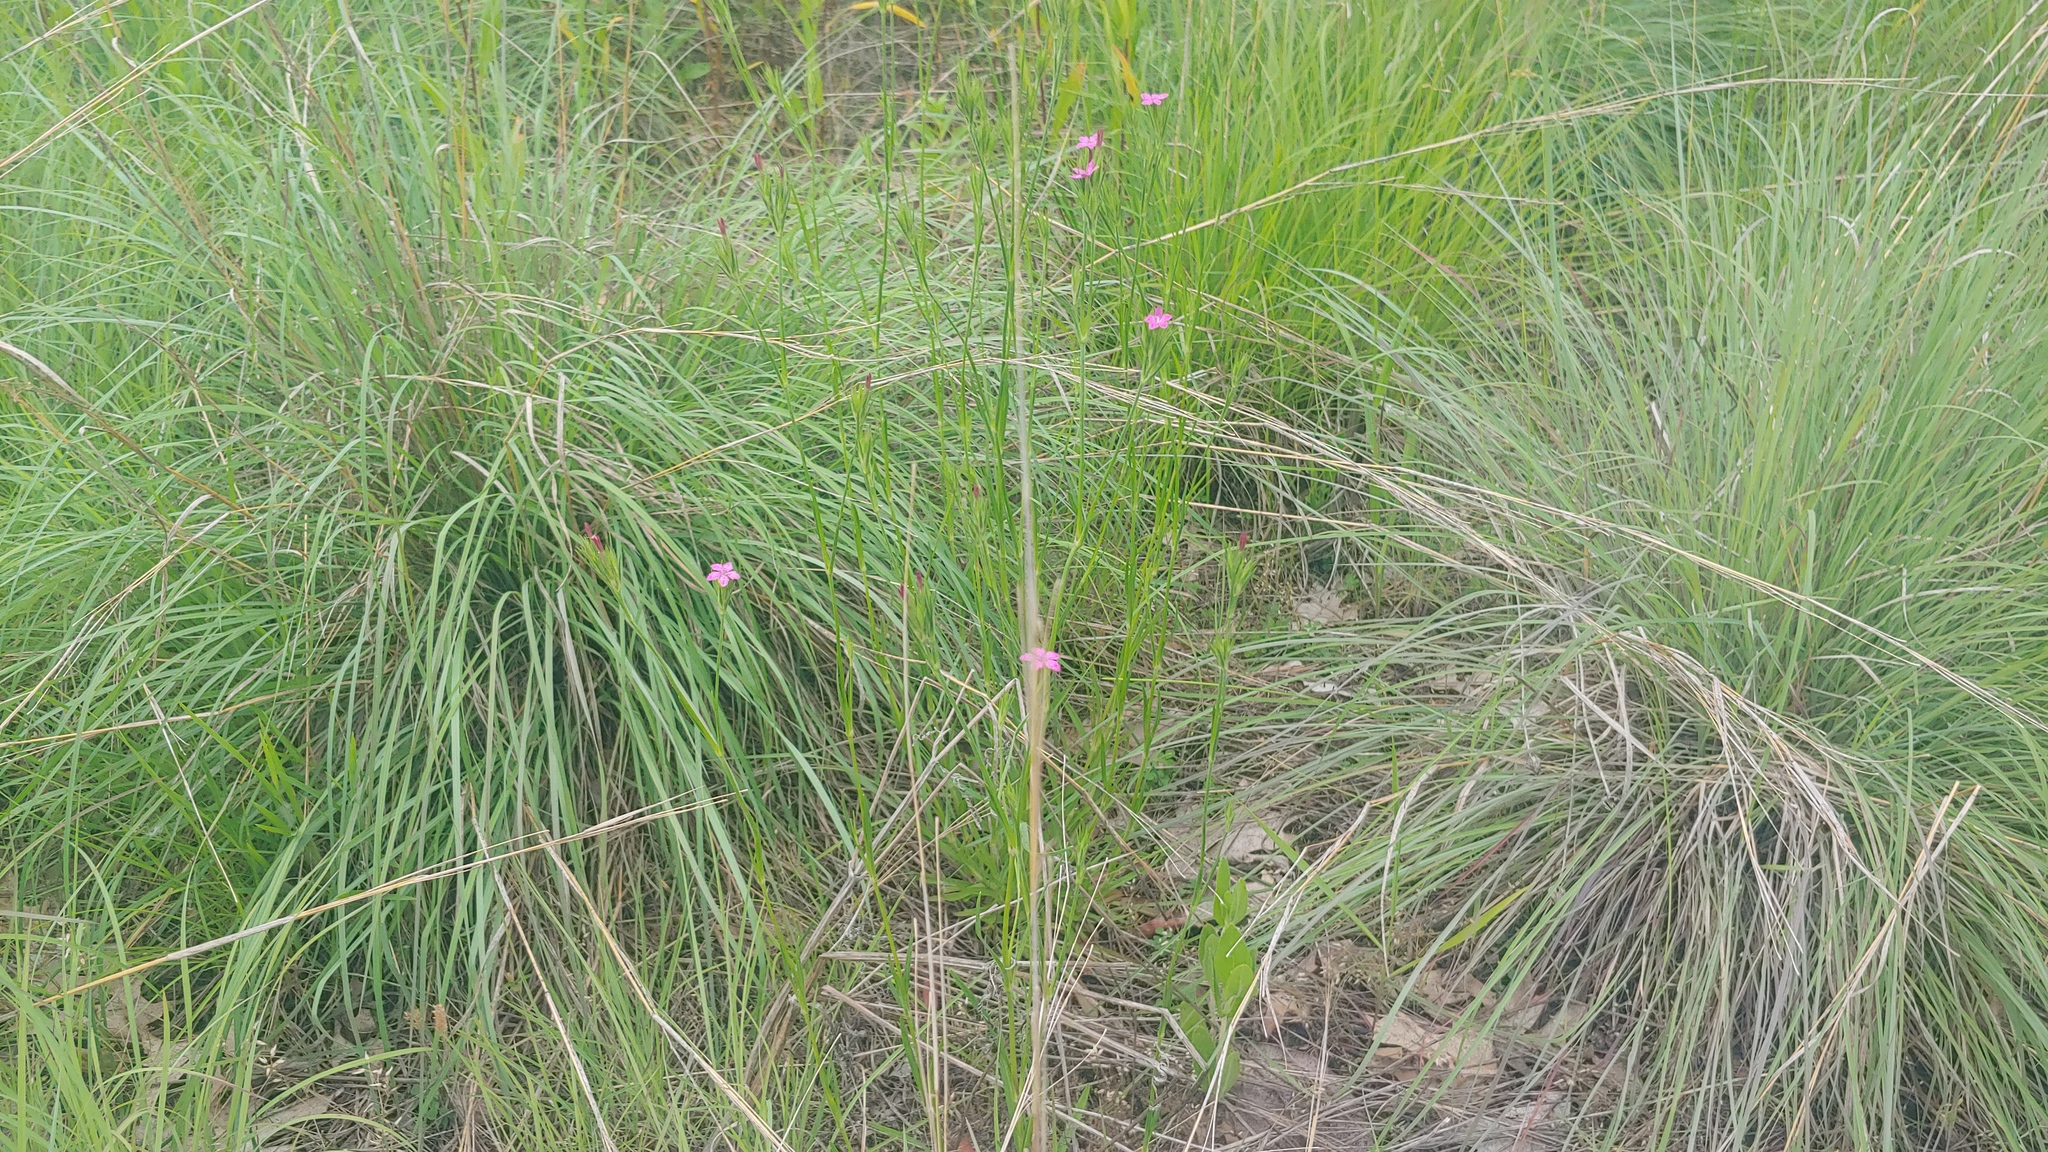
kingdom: Plantae
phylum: Tracheophyta
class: Magnoliopsida
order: Caryophyllales
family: Caryophyllaceae
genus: Dianthus
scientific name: Dianthus armeria
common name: Deptford pink
